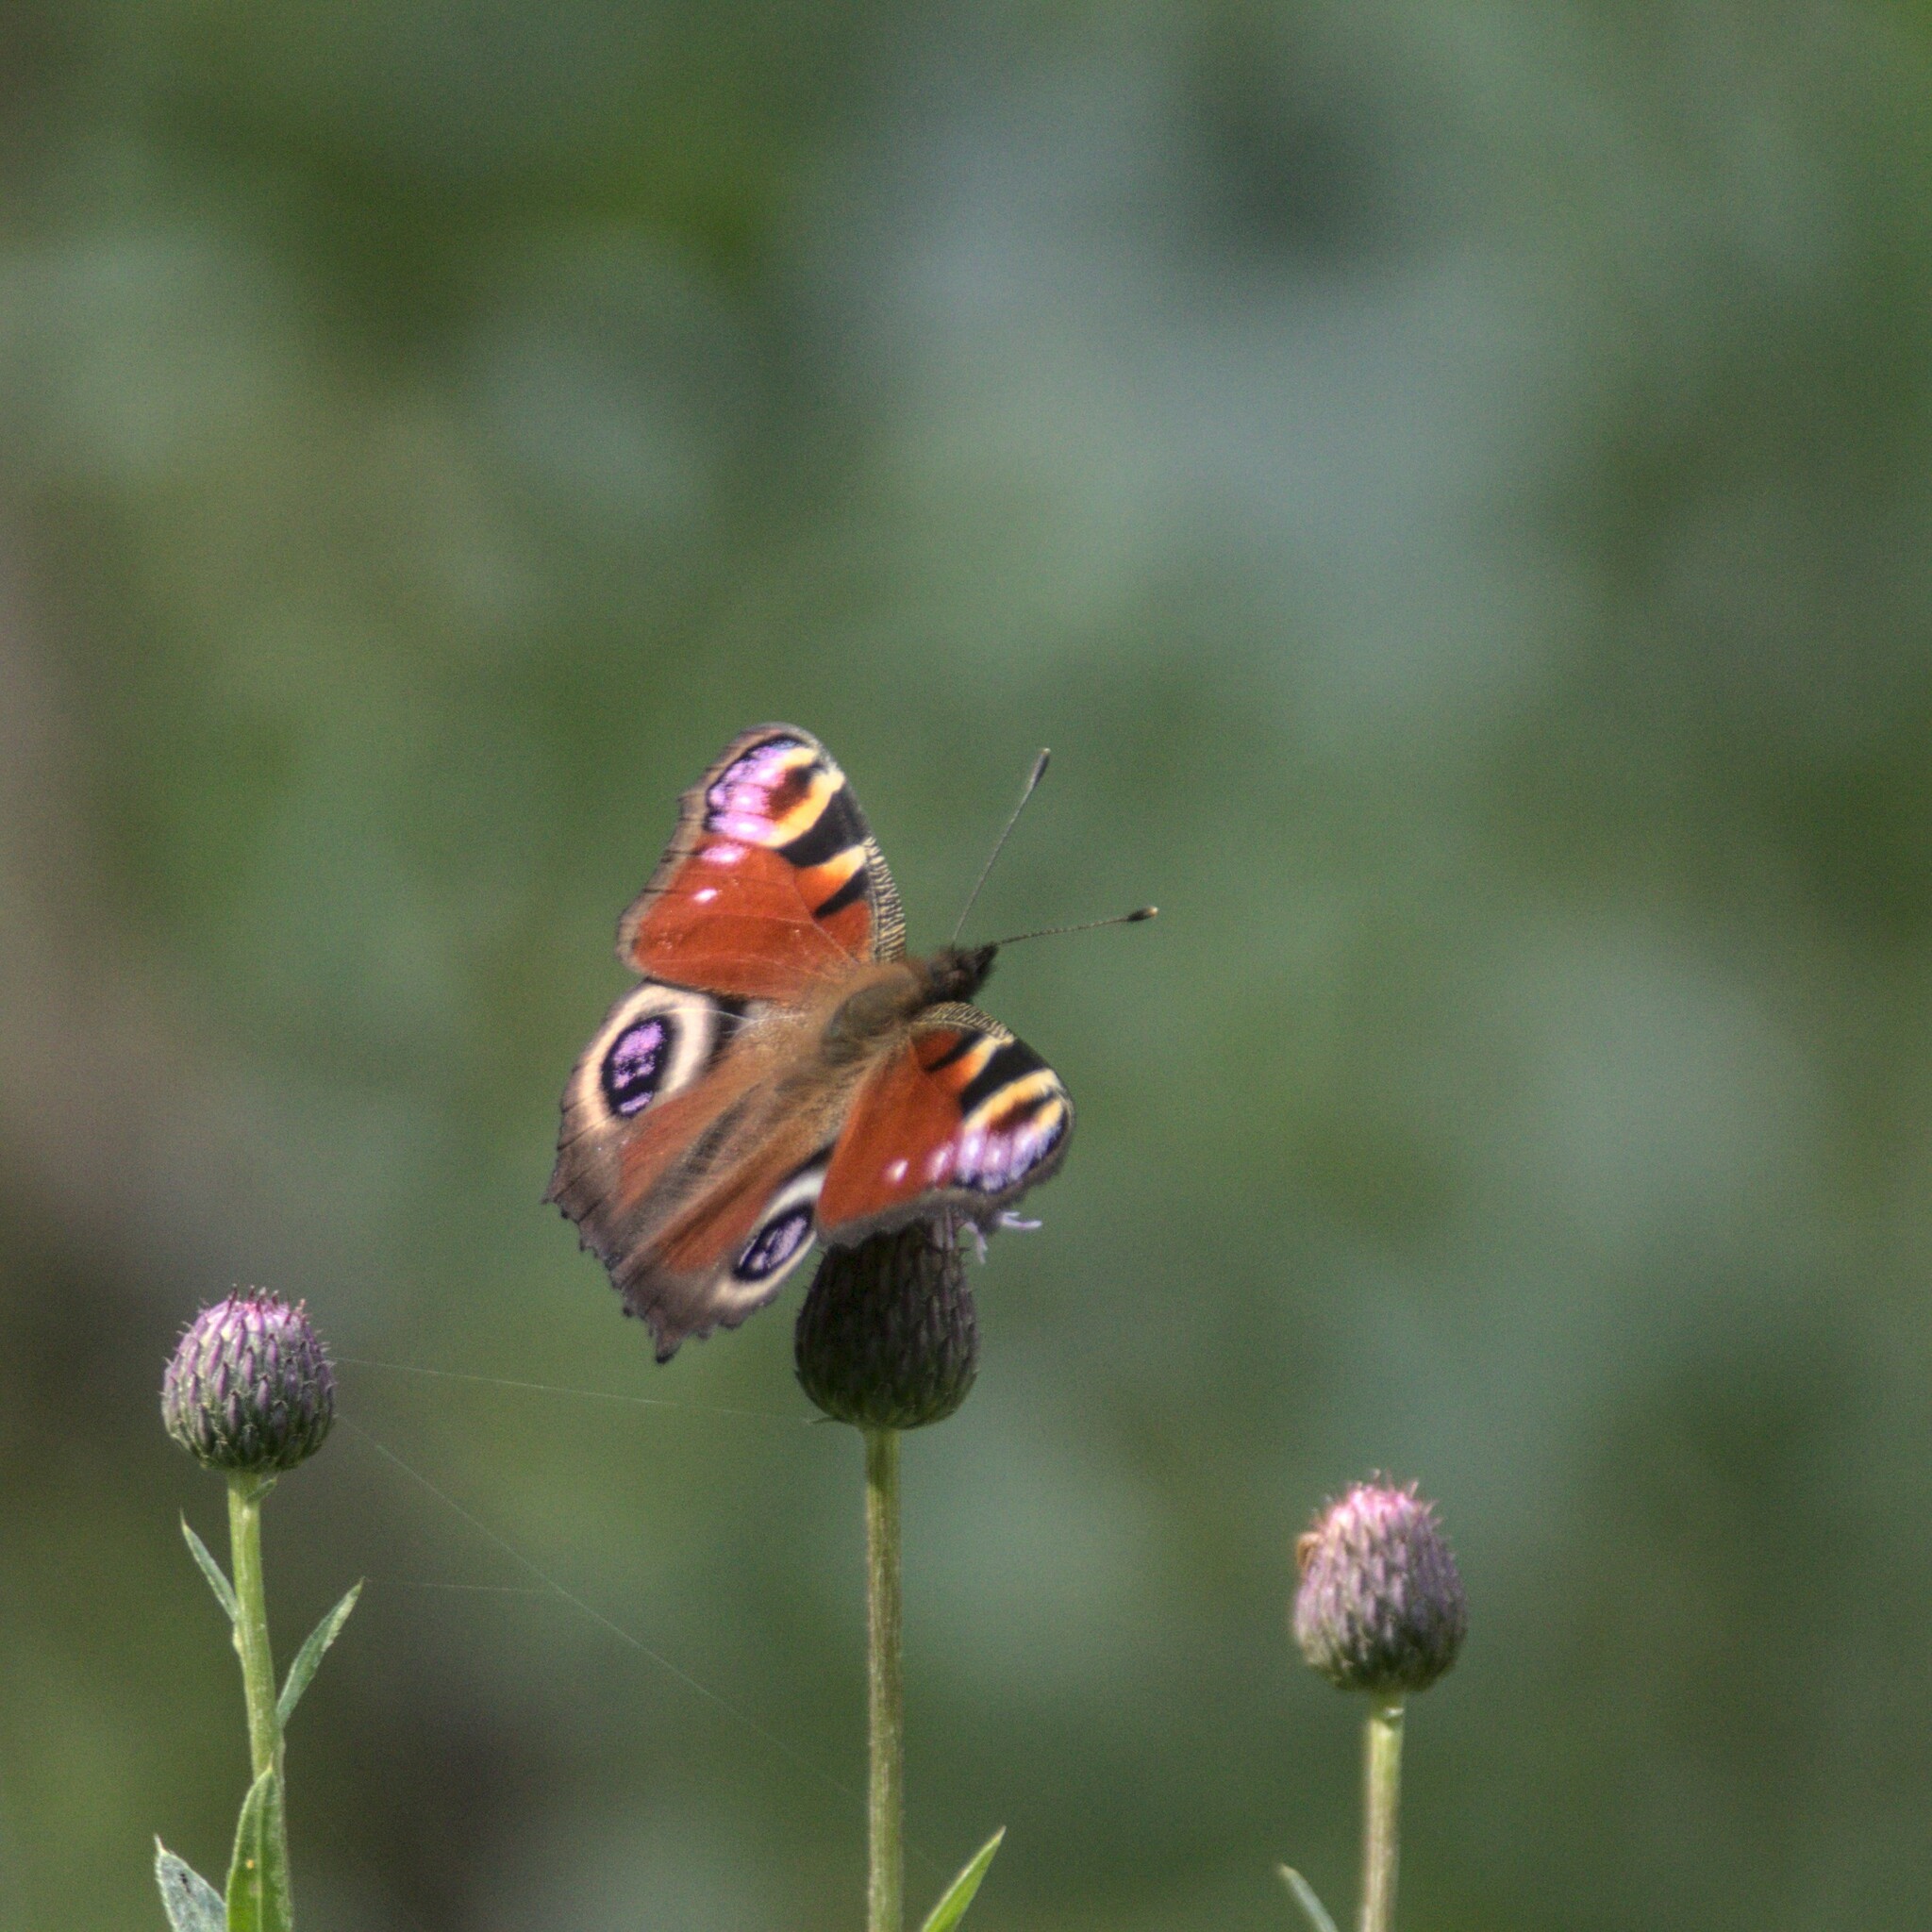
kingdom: Animalia
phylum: Arthropoda
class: Insecta
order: Lepidoptera
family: Nymphalidae
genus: Aglais
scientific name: Aglais io
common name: Peacock
